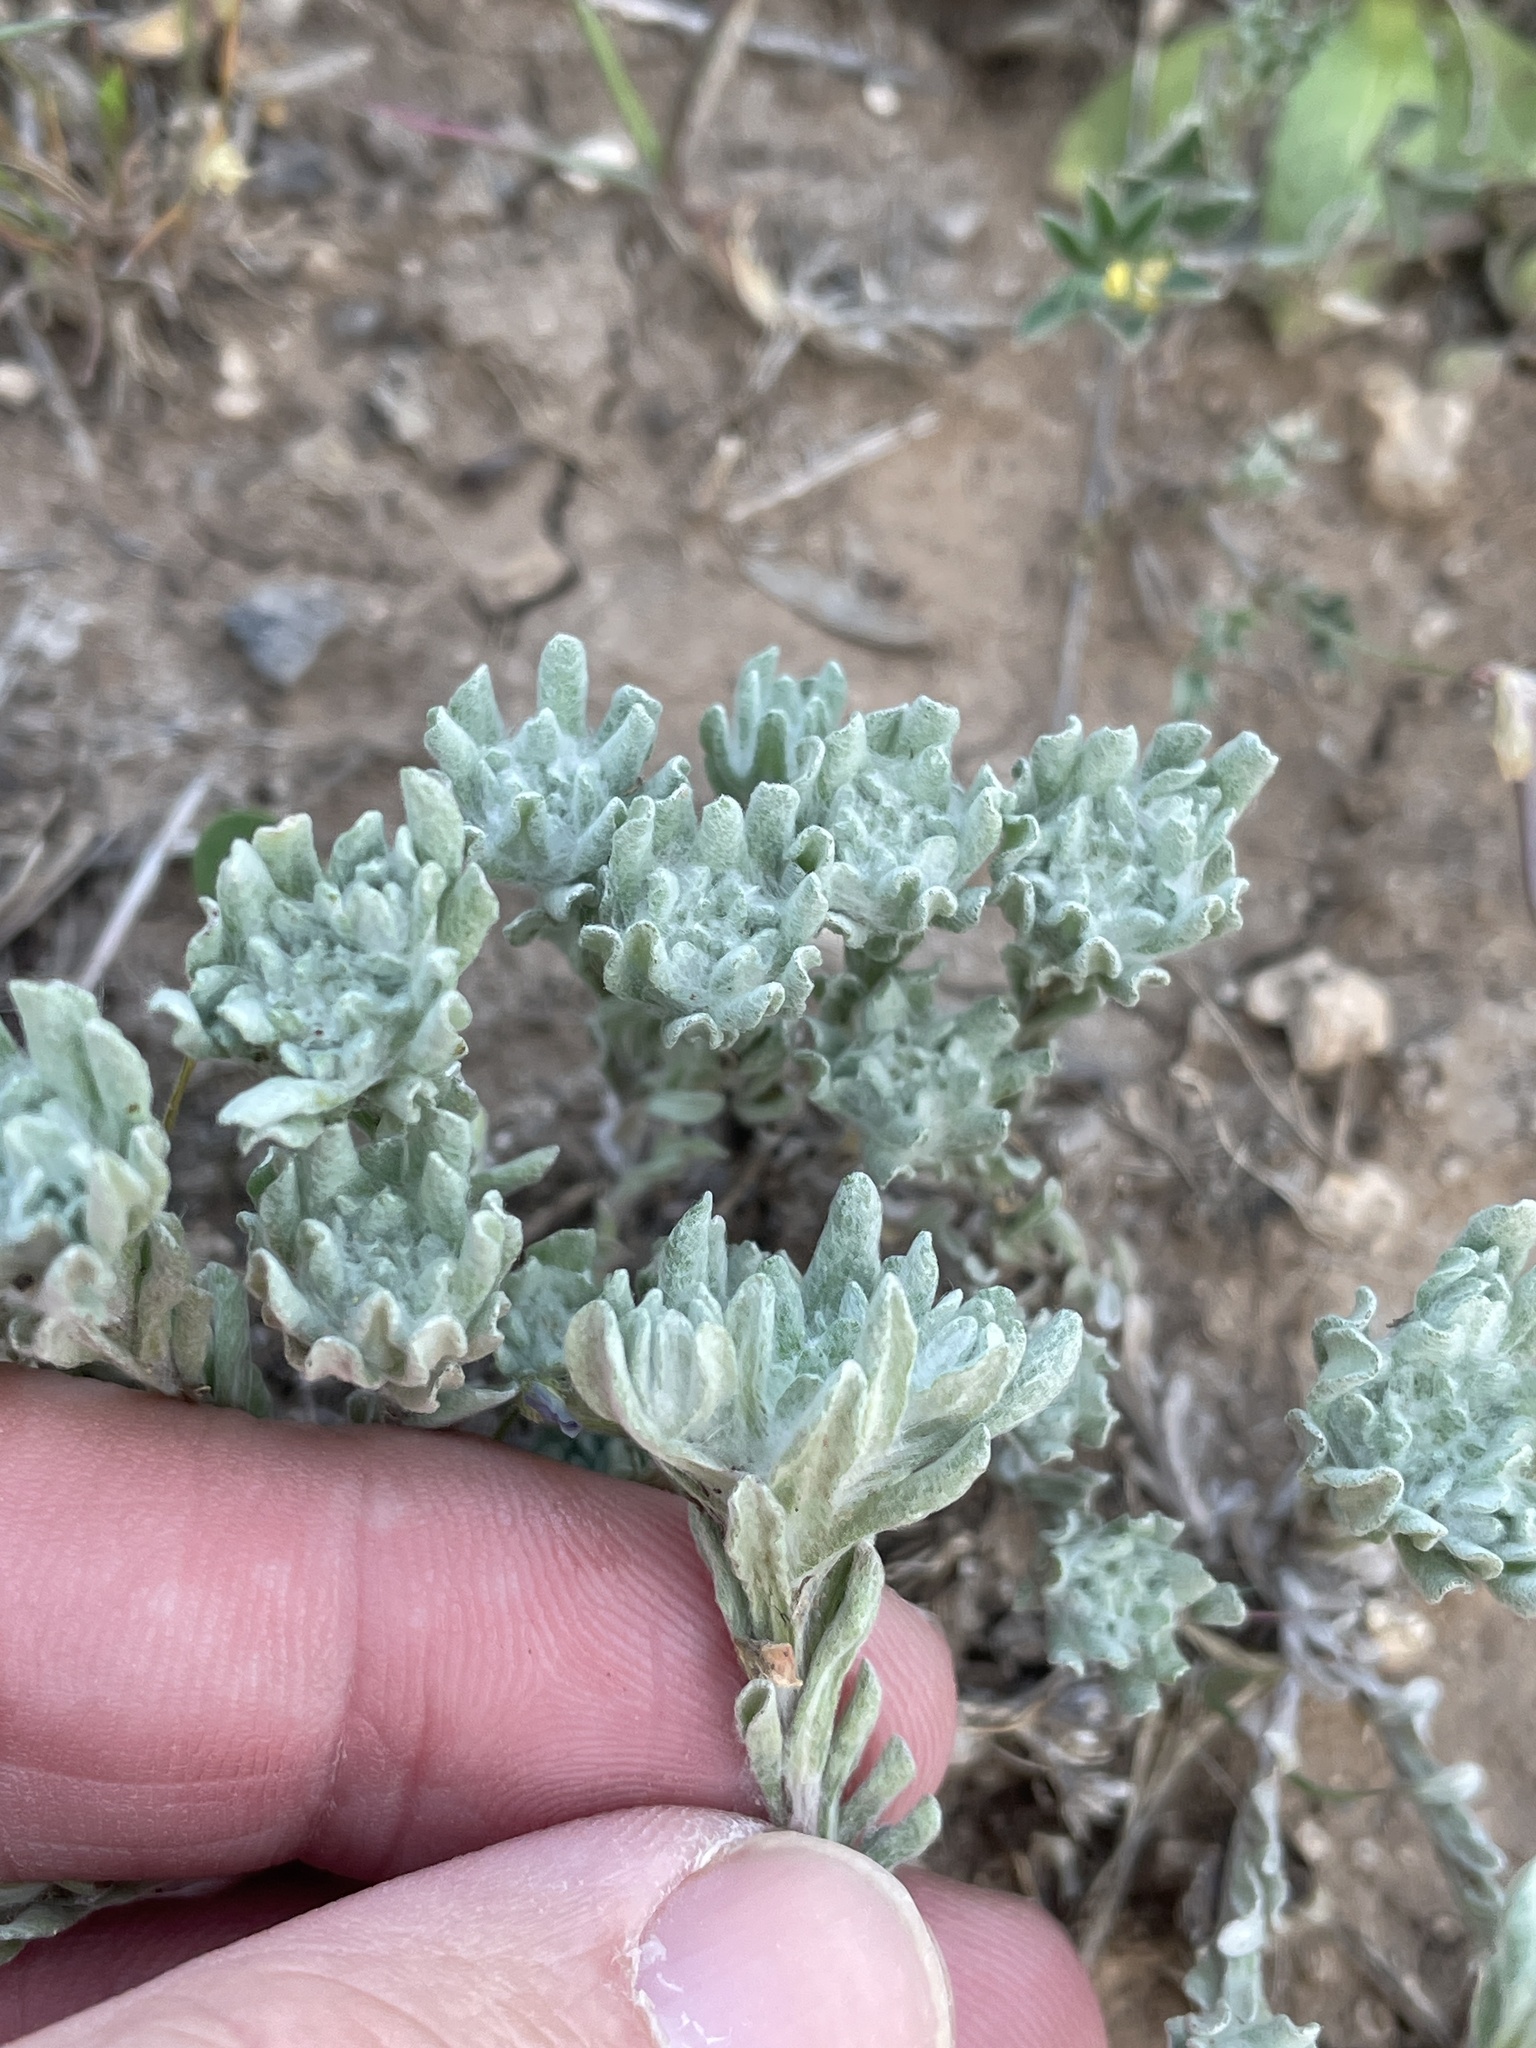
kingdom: Plantae
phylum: Tracheophyta
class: Magnoliopsida
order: Asterales
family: Asteraceae
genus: Diaperia
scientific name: Diaperia prolifera
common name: Big-head rabbit-tobacco
